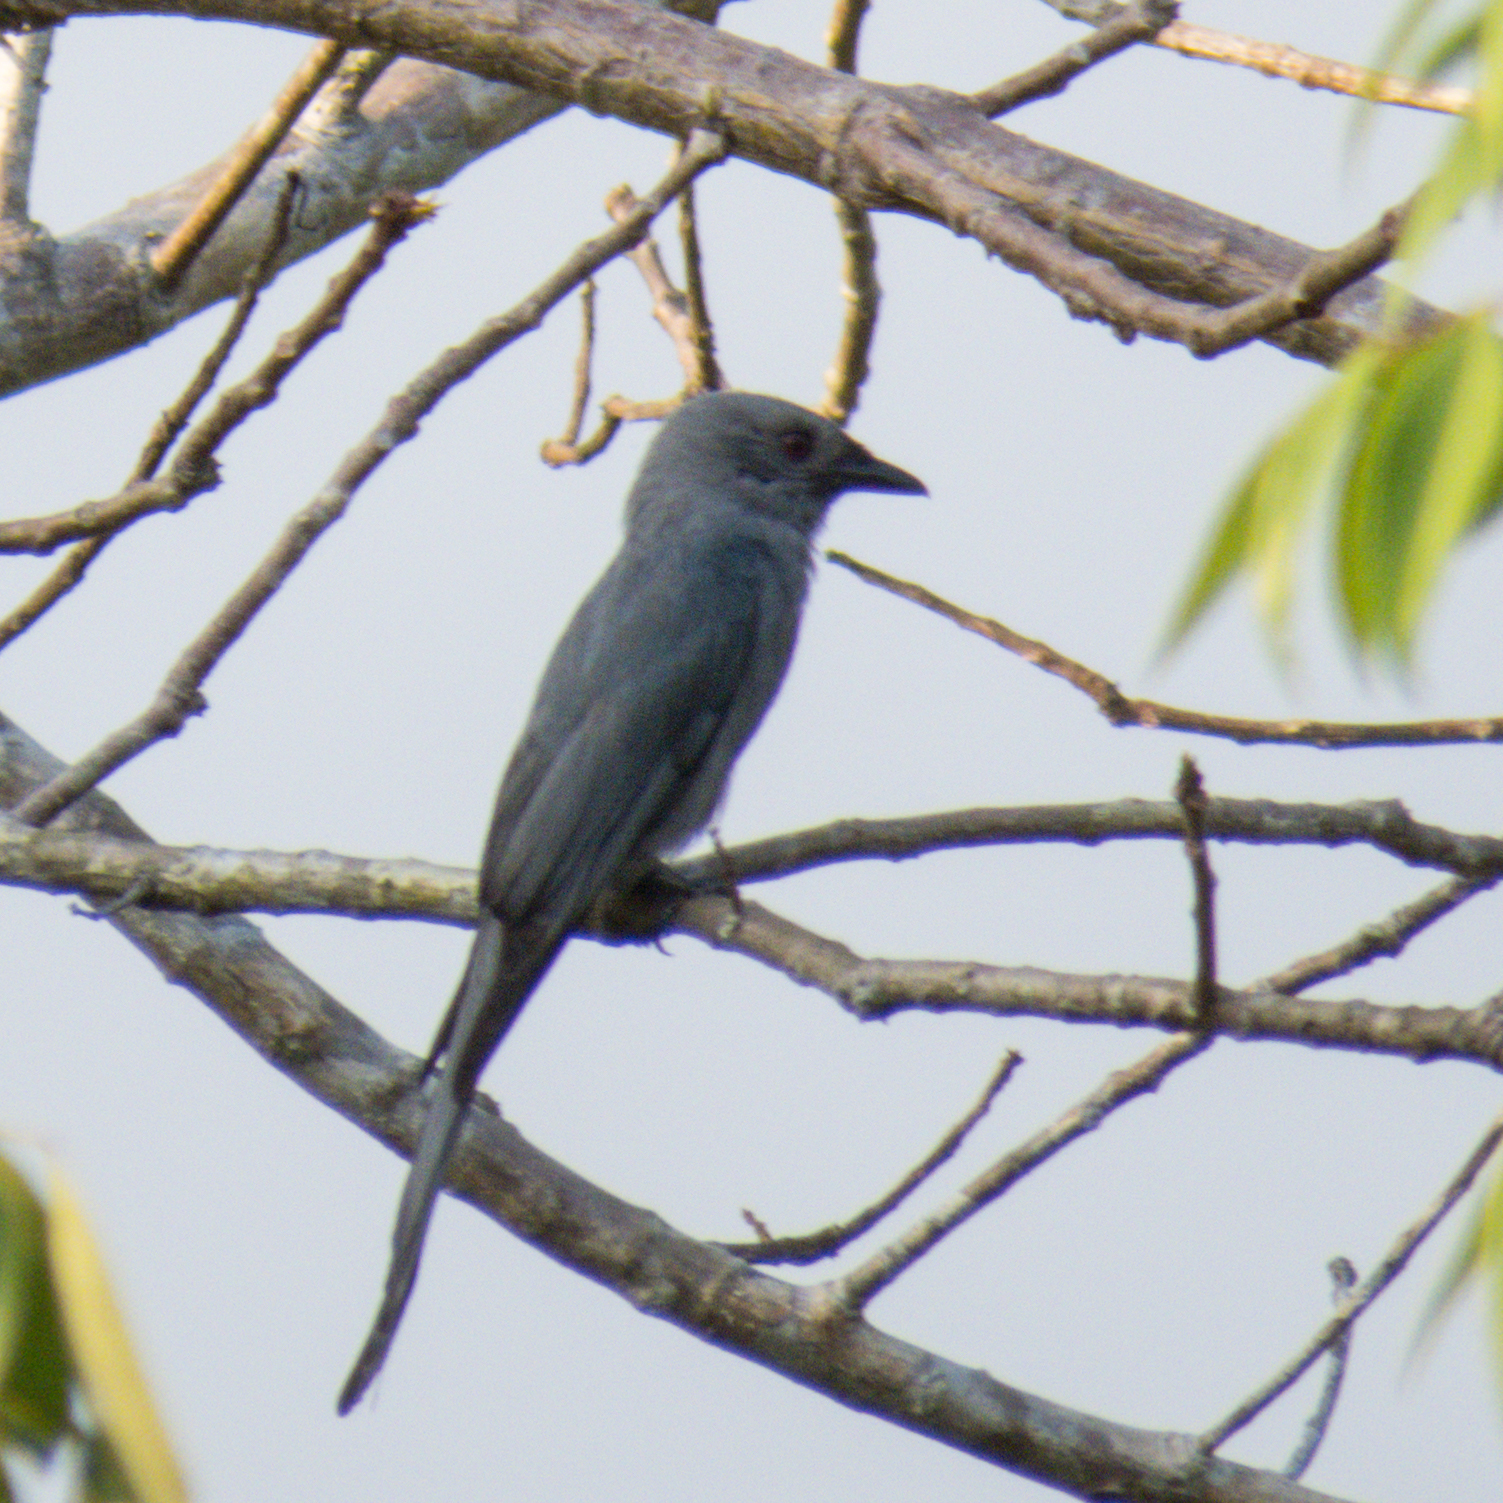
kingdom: Animalia
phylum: Chordata
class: Aves
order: Passeriformes
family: Dicruridae
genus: Dicrurus
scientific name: Dicrurus leucophaeus
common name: Ashy drongo
